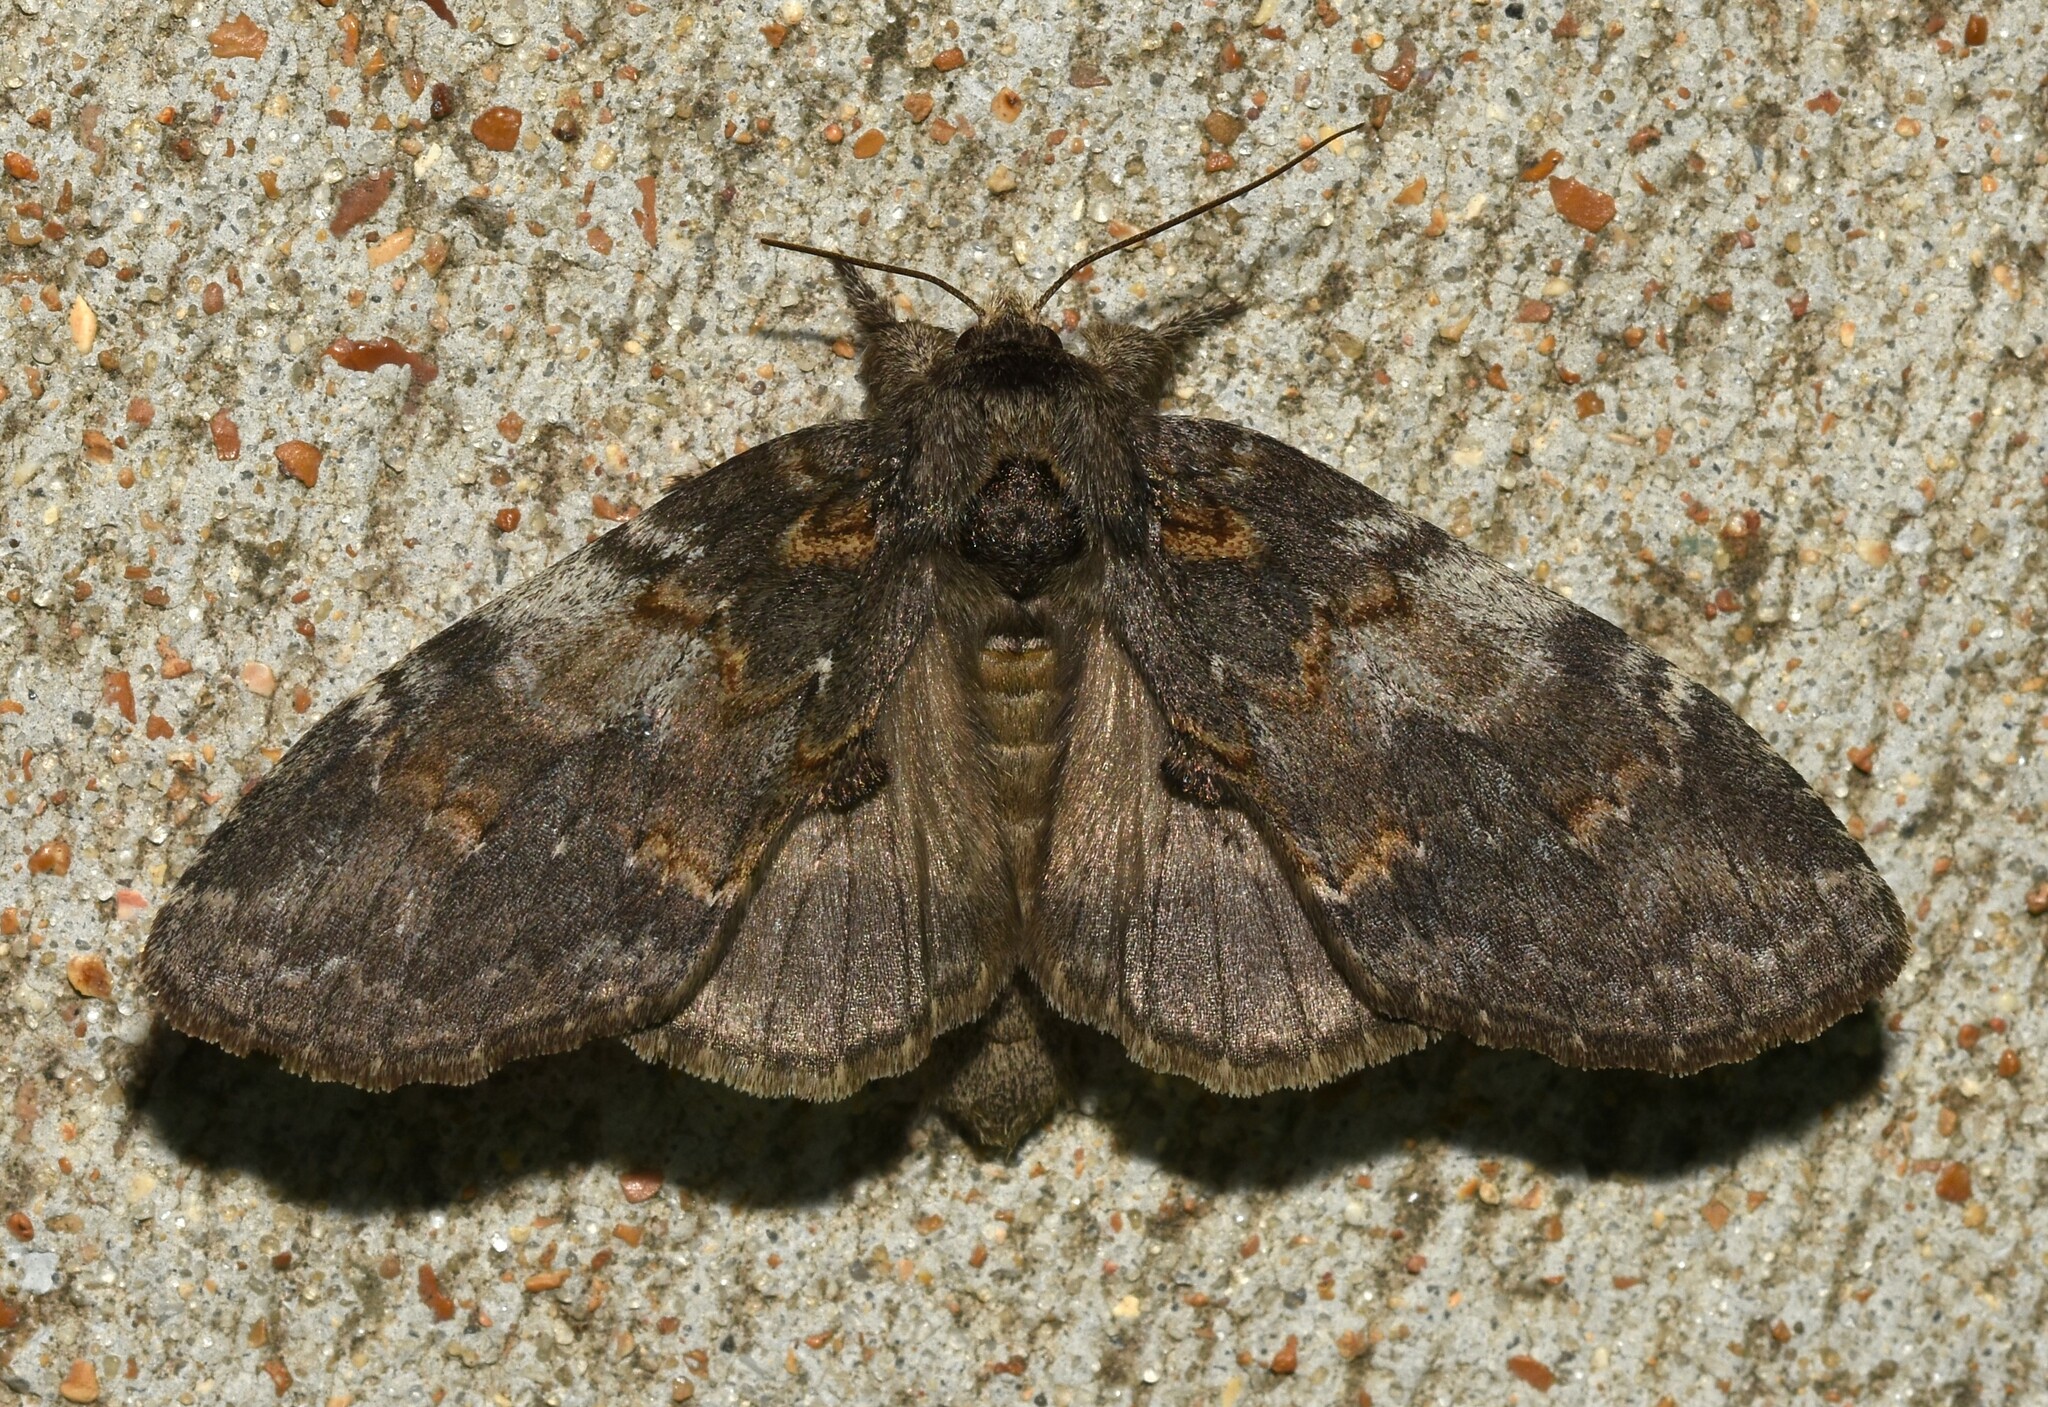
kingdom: Animalia
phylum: Arthropoda
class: Insecta
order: Lepidoptera
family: Notodontidae
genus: Peridea
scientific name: Peridea angulosa
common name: Angulose prominent
